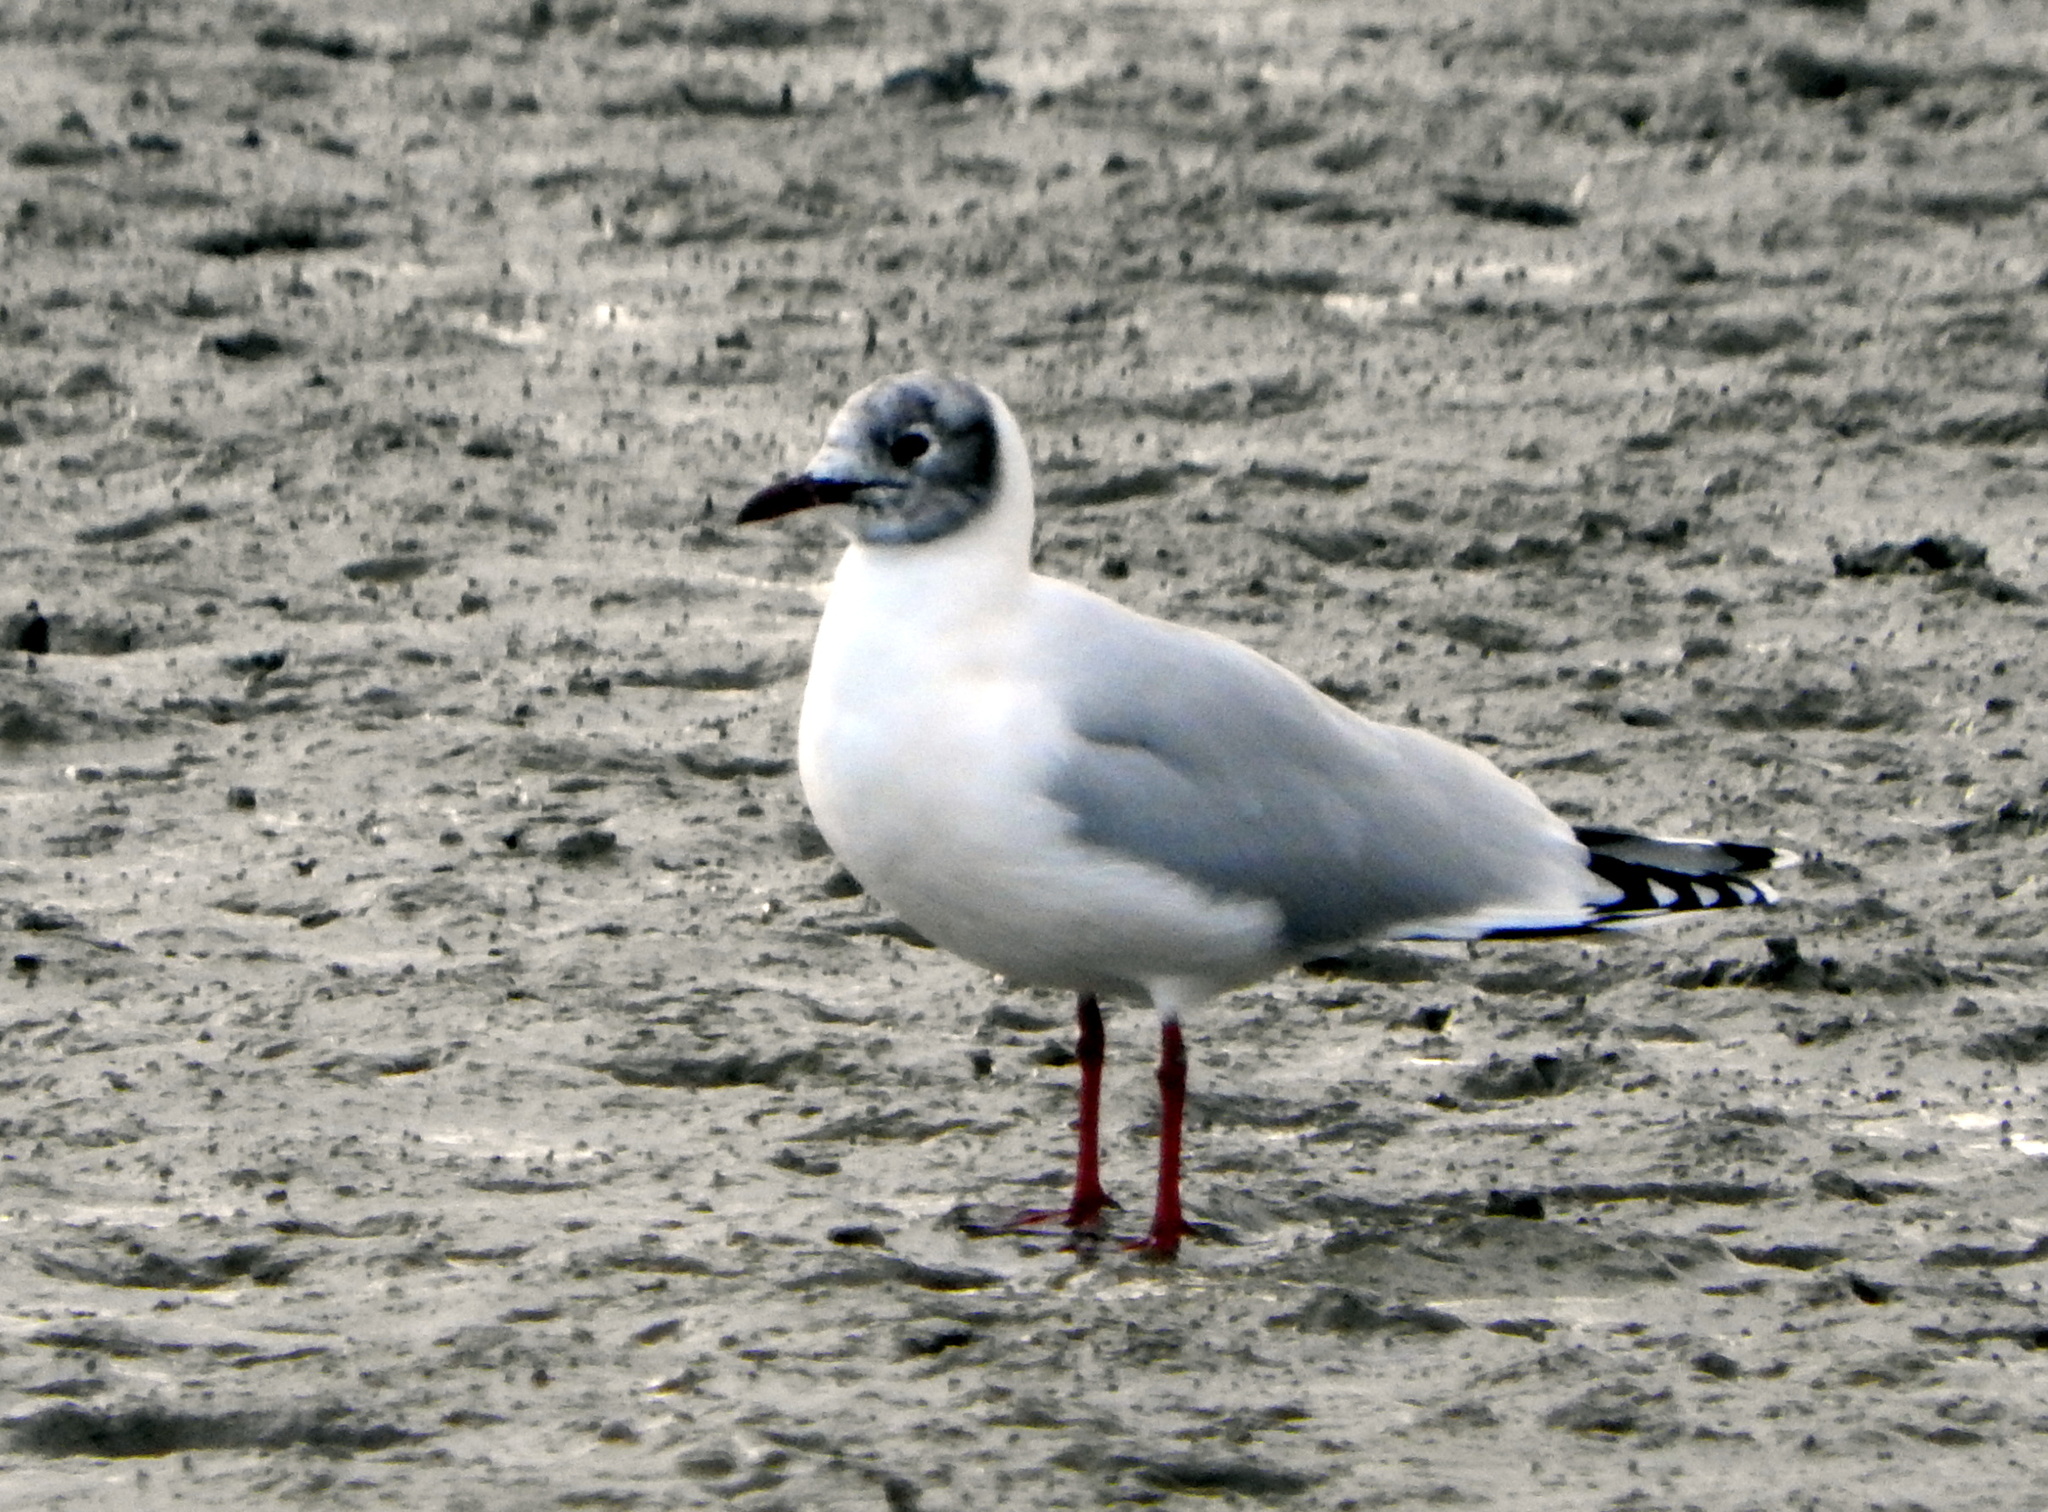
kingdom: Animalia
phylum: Chordata
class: Aves
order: Charadriiformes
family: Laridae
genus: Chroicocephalus
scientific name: Chroicocephalus maculipennis
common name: Brown-hooded gull
